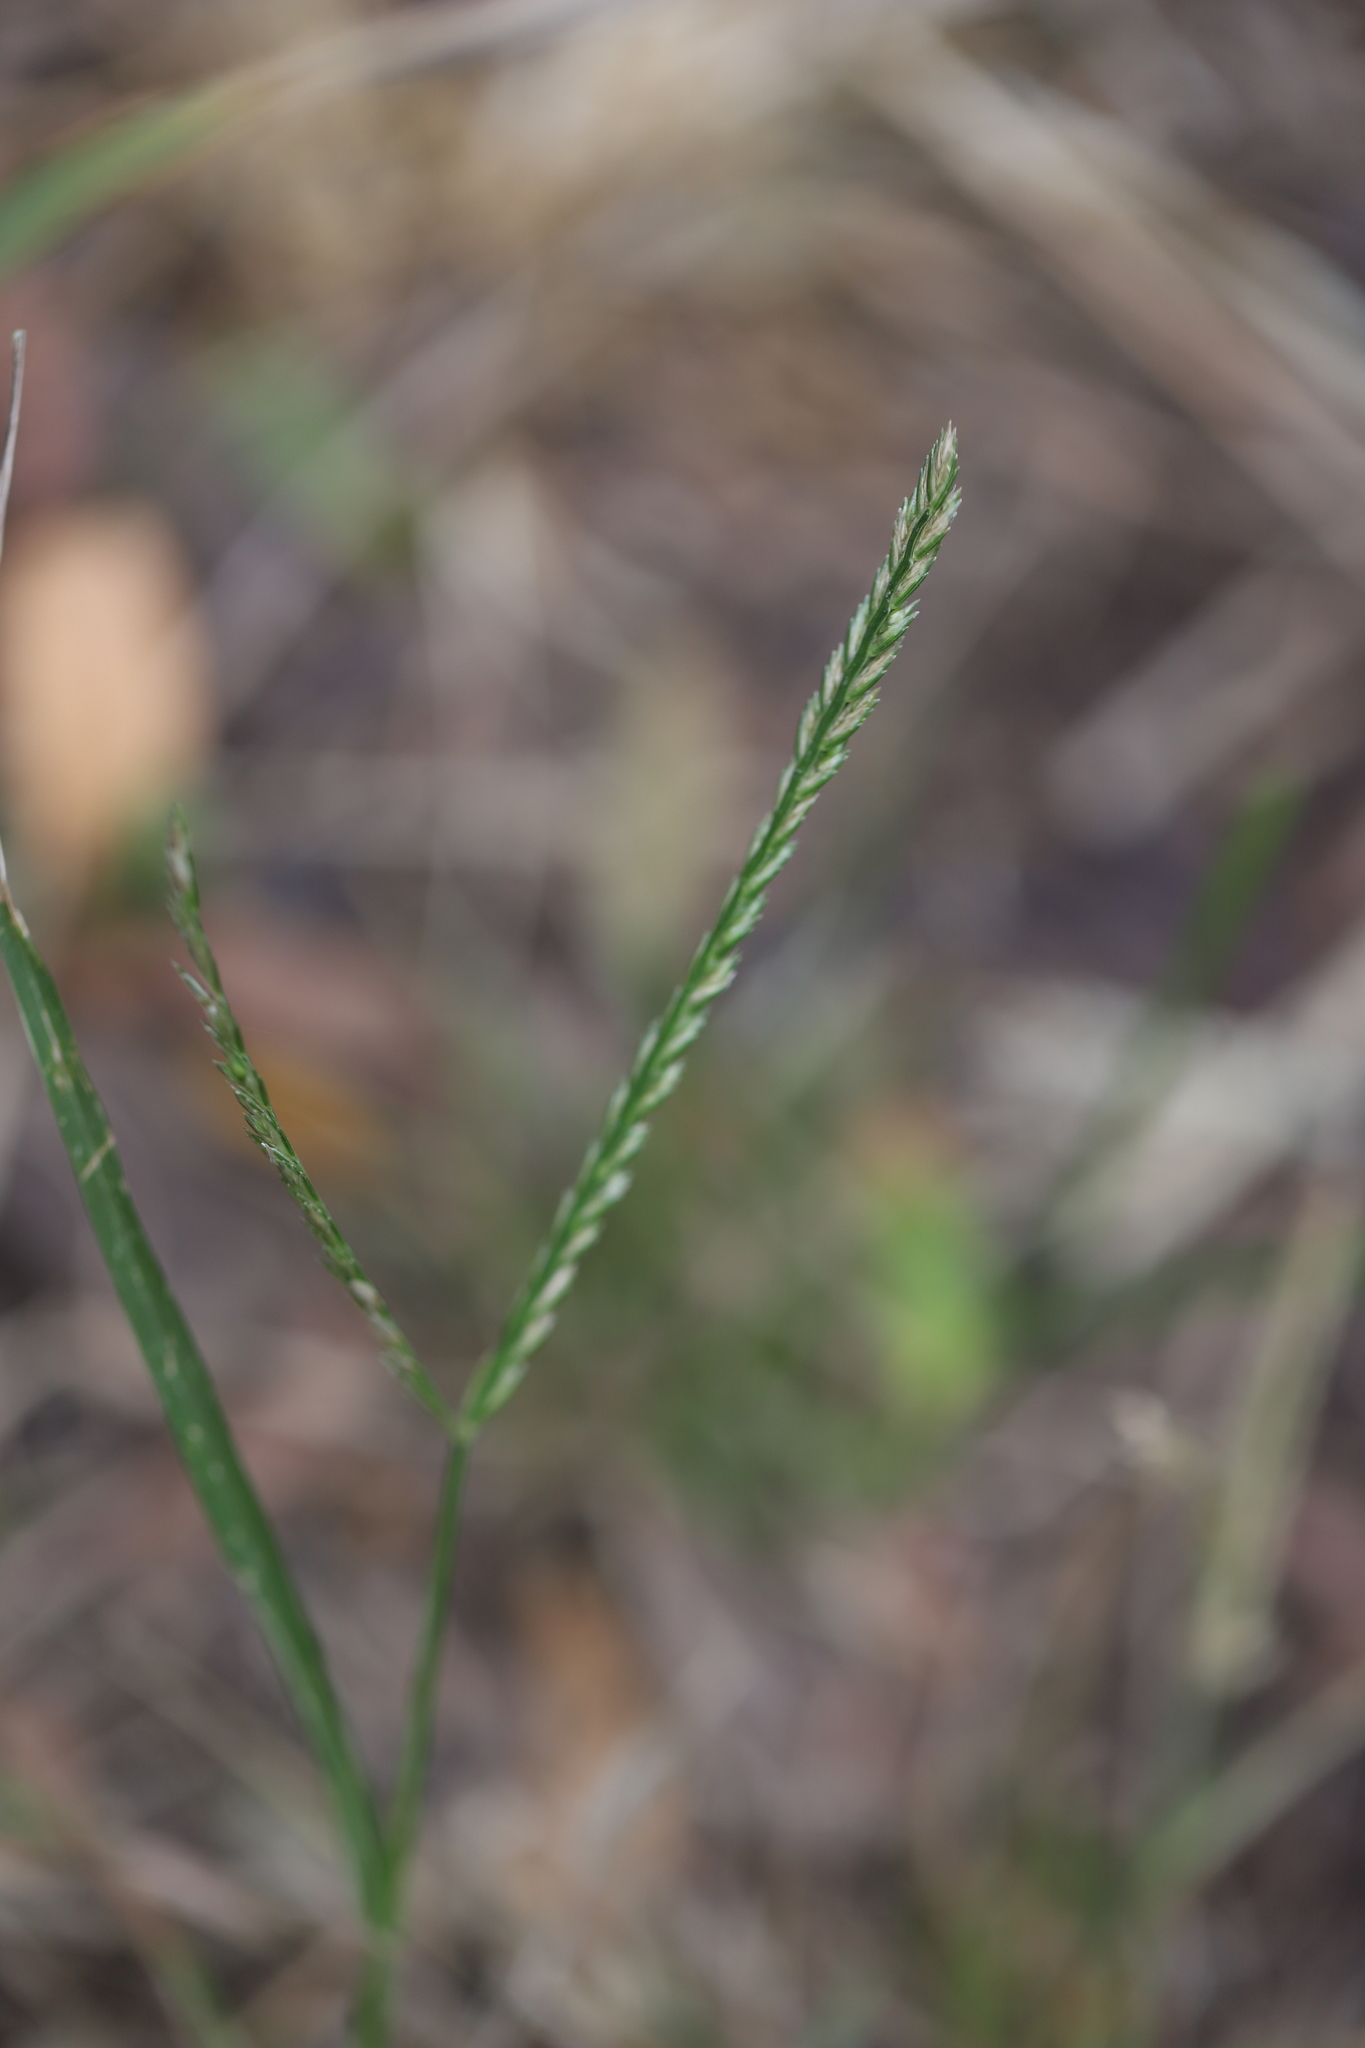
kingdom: Plantae
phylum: Tracheophyta
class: Liliopsida
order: Poales
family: Poaceae
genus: Eleusine
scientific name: Eleusine indica
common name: Yard-grass
